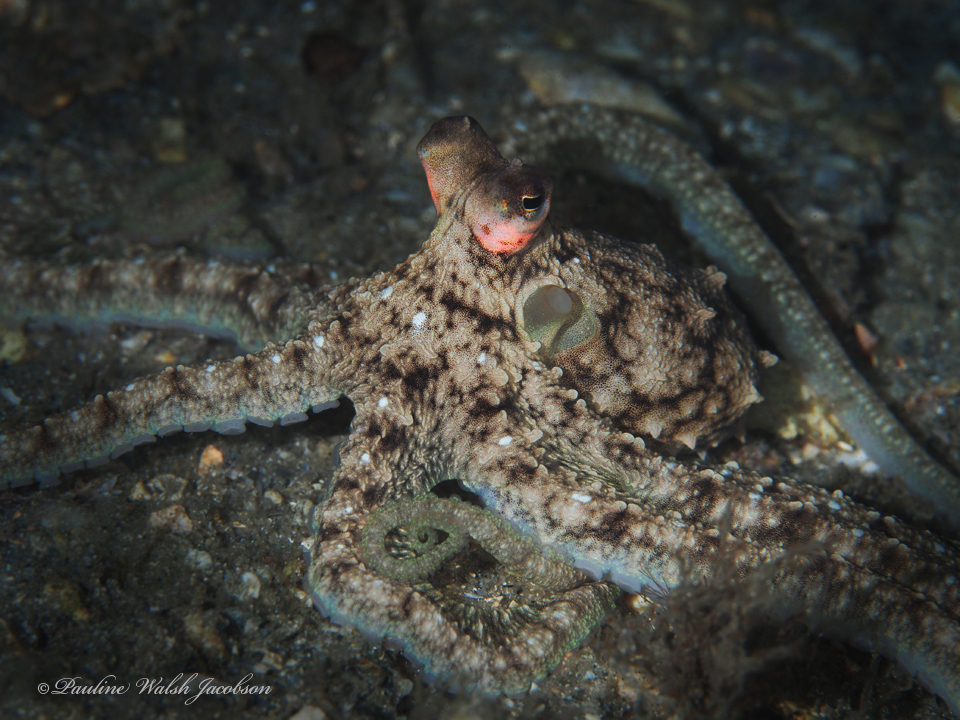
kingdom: Animalia
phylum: Mollusca
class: Cephalopoda
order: Octopoda
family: Octopodidae
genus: Macrotritopus
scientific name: Macrotritopus defilippi
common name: Lilliput longarm octopus
